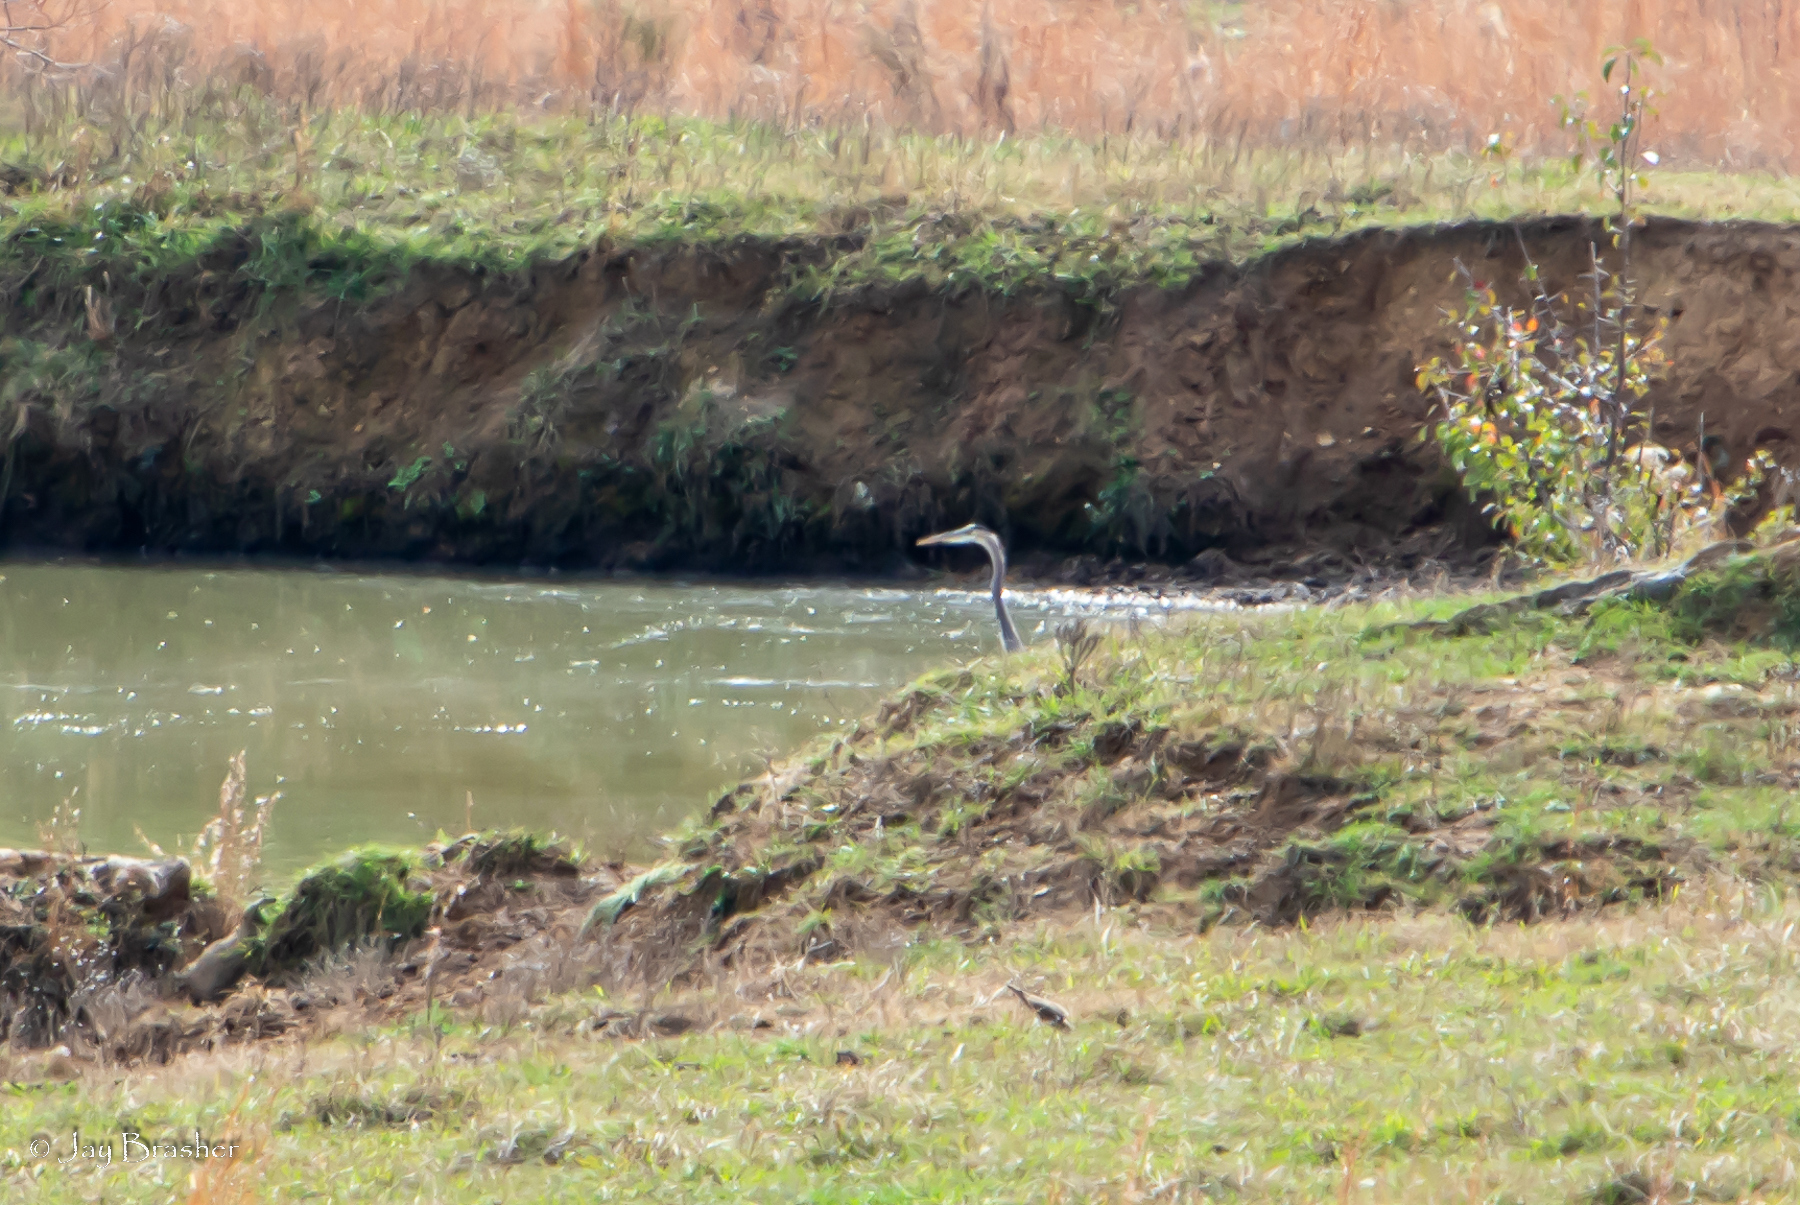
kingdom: Animalia
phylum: Chordata
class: Aves
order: Pelecaniformes
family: Ardeidae
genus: Ardea
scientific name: Ardea herodias
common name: Great blue heron
